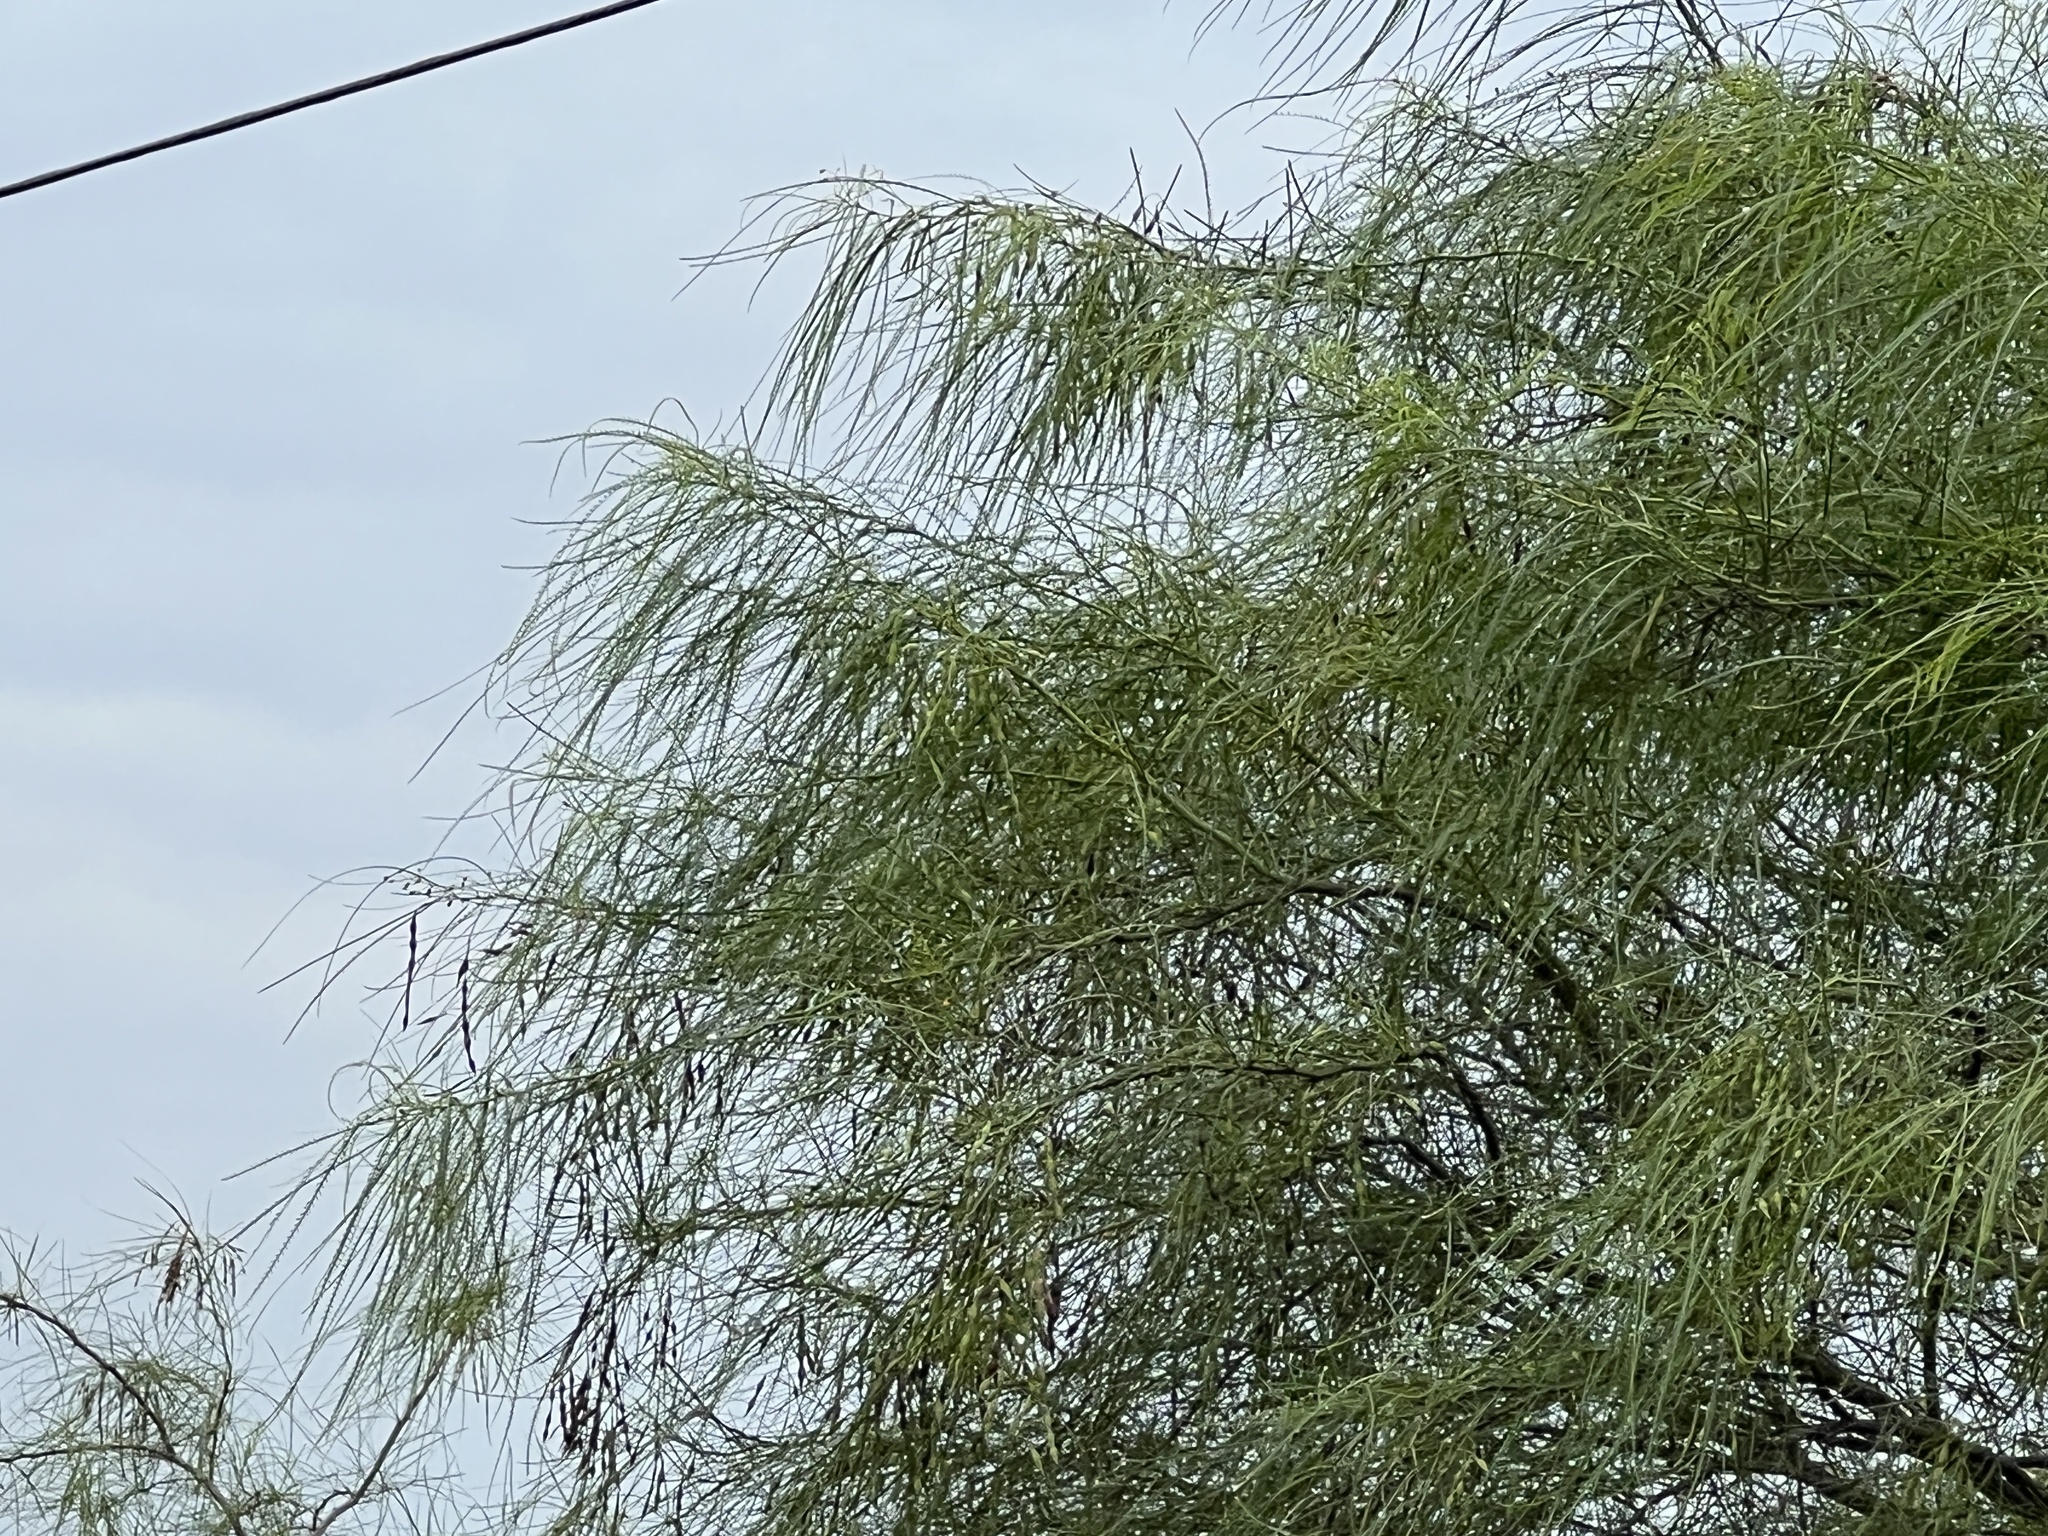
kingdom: Plantae
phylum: Tracheophyta
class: Magnoliopsida
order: Fabales
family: Fabaceae
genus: Parkinsonia
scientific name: Parkinsonia aculeata
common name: Jerusalem thorn
